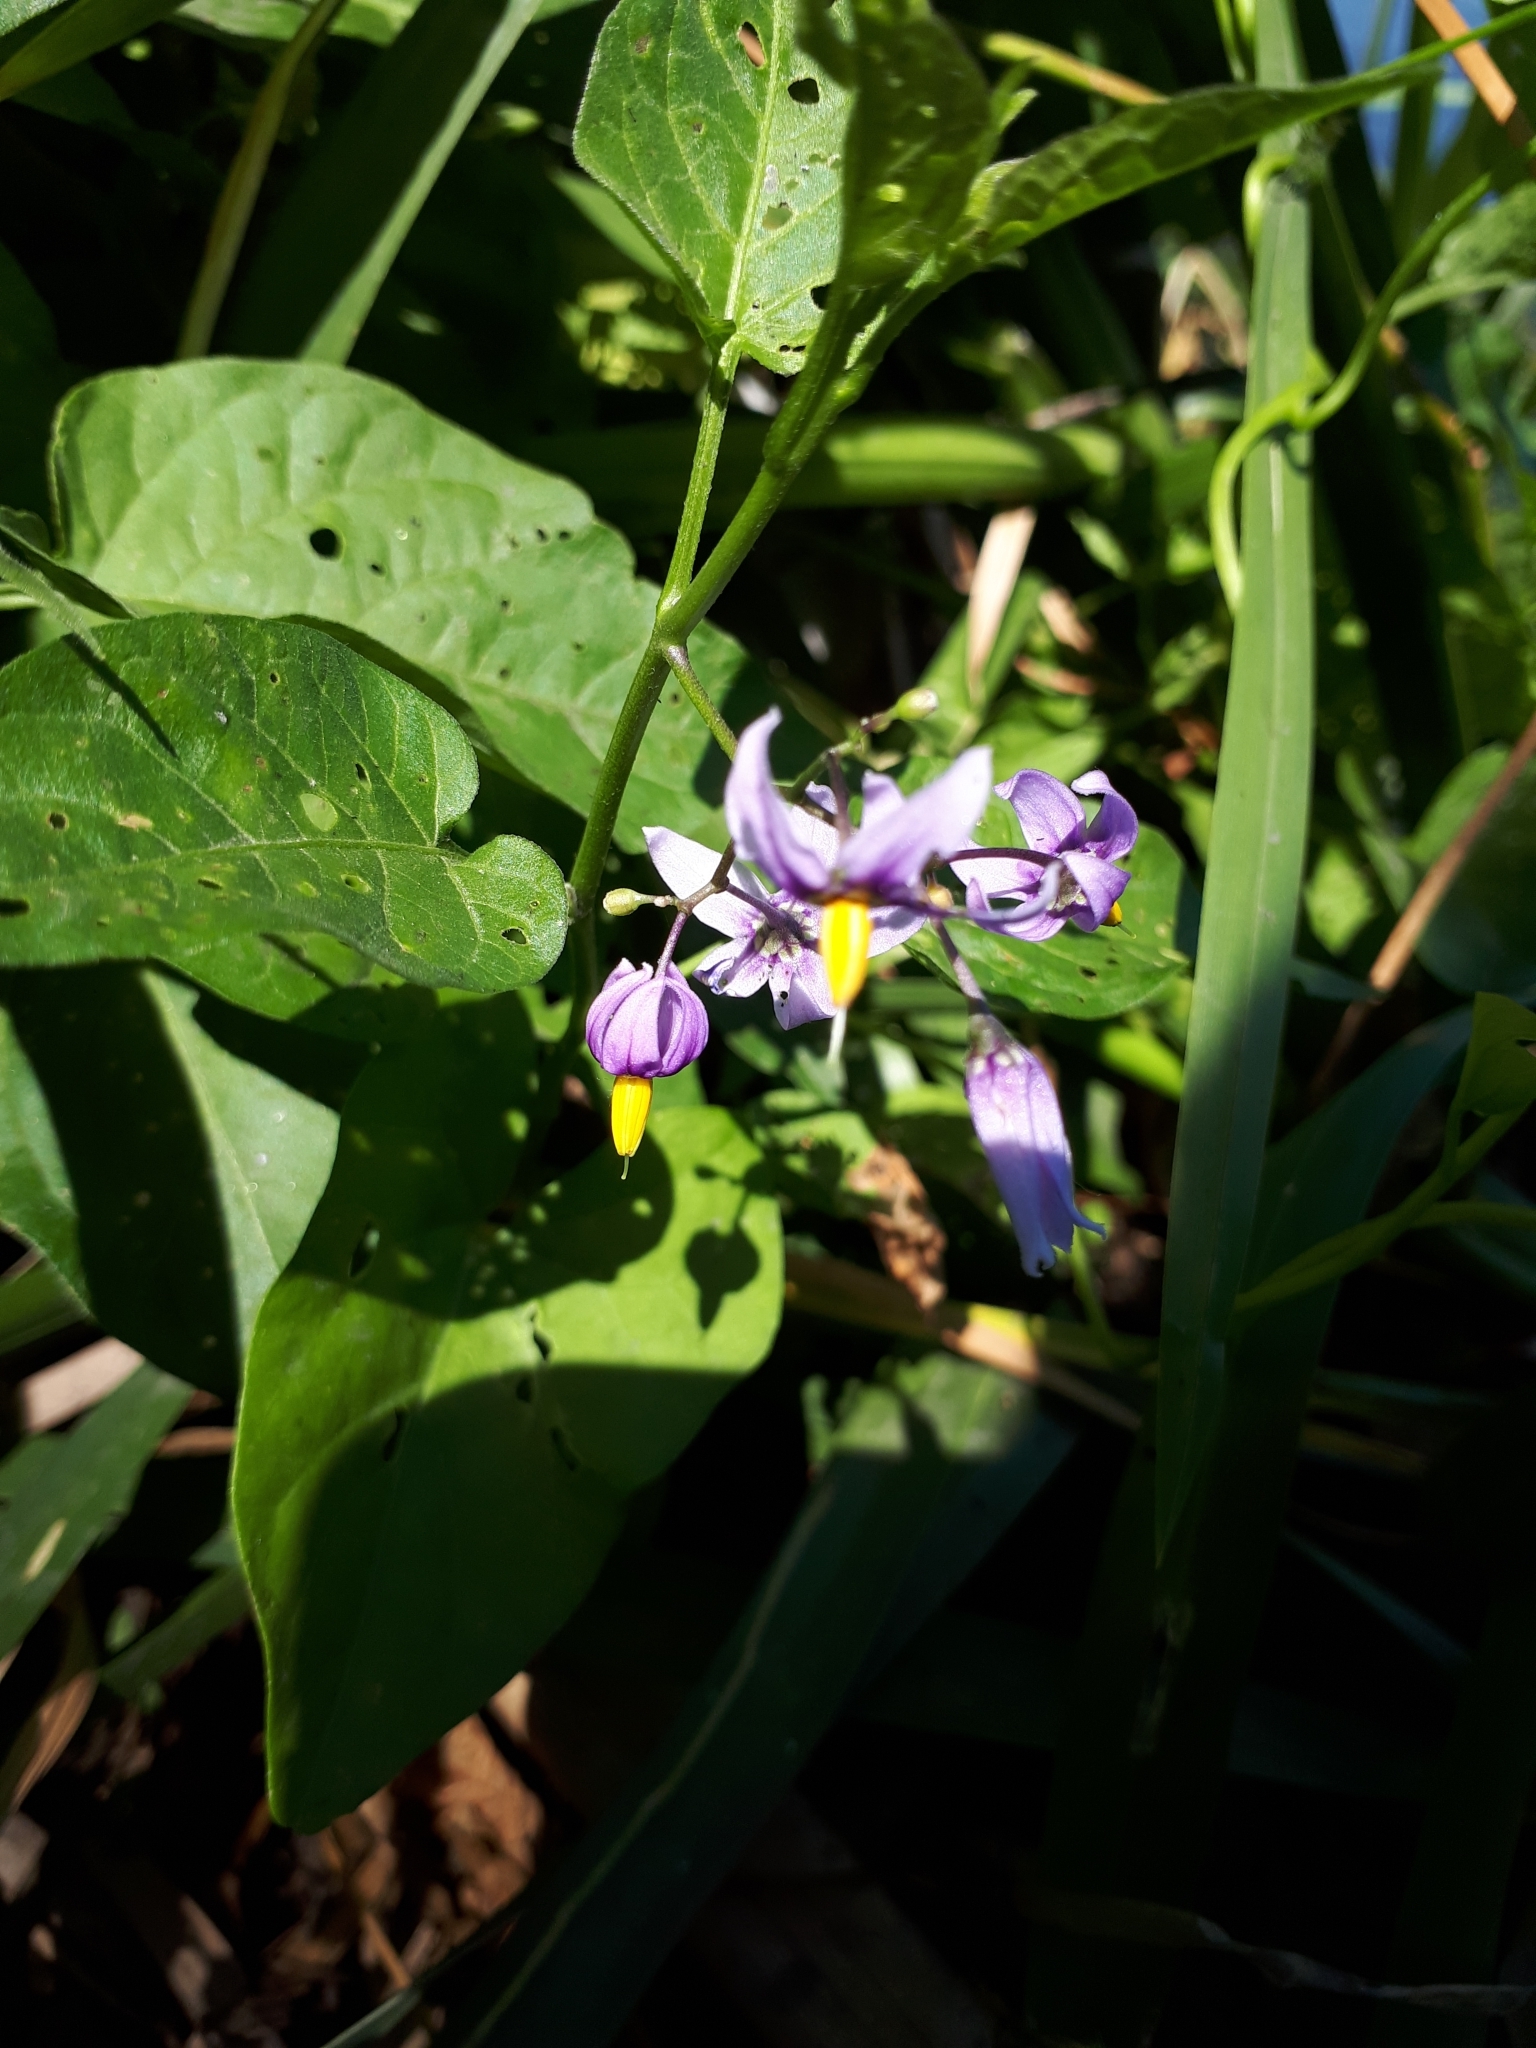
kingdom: Plantae
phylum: Tracheophyta
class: Magnoliopsida
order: Solanales
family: Solanaceae
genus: Solanum
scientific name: Solanum dulcamara
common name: Climbing nightshade
